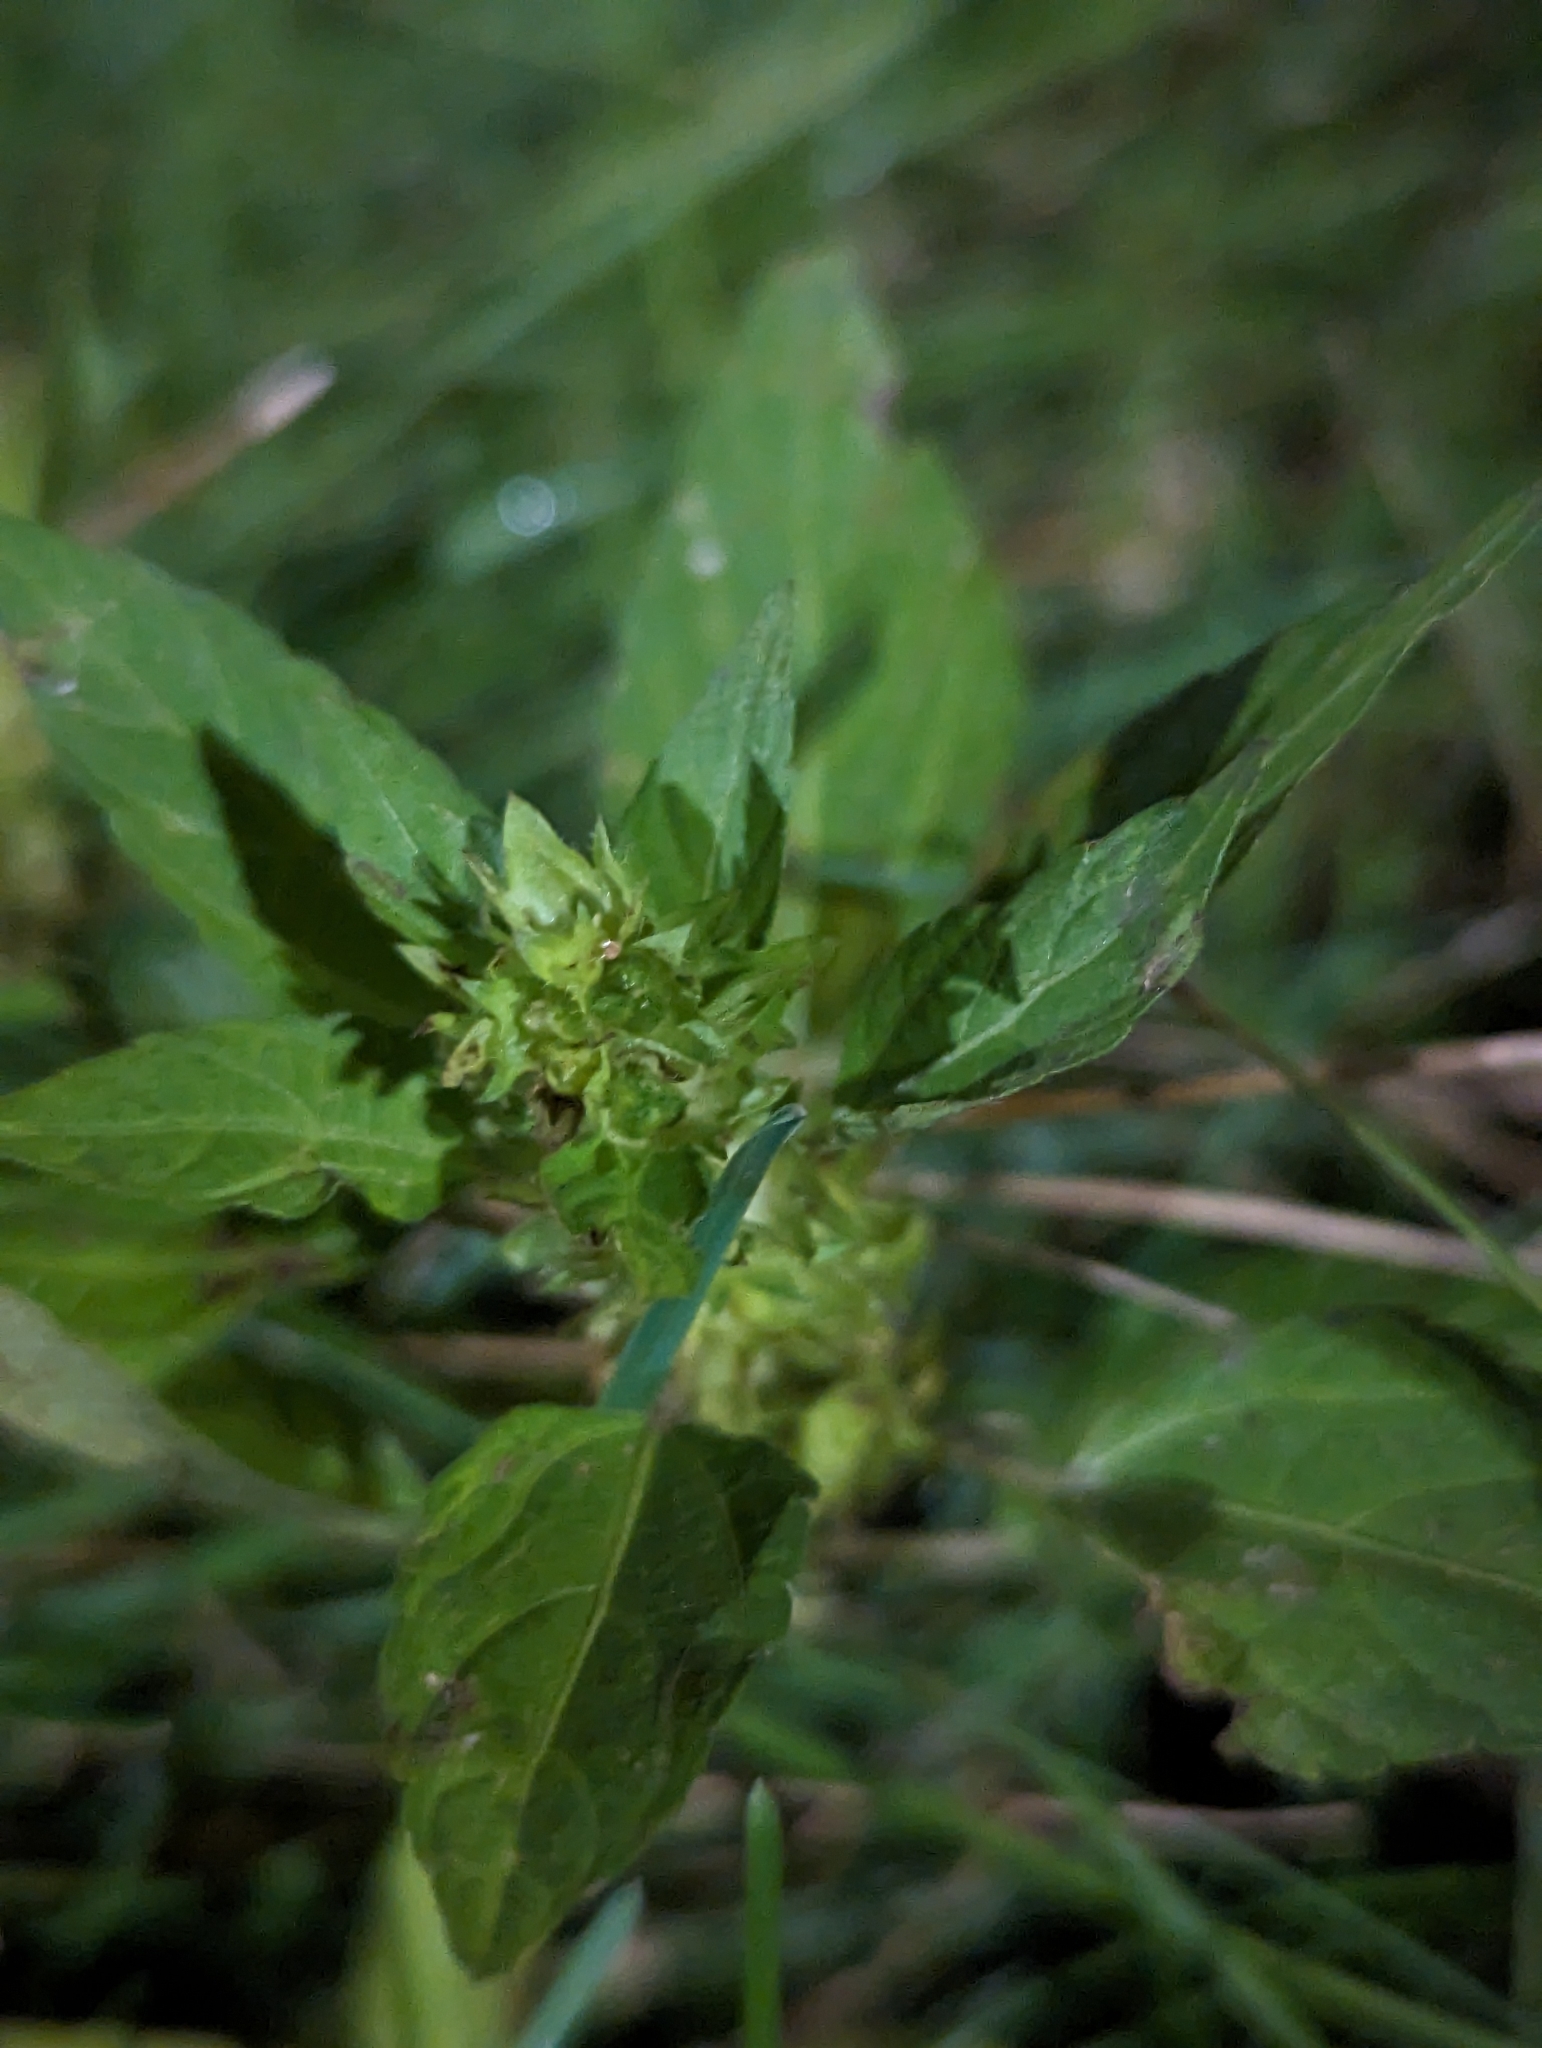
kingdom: Plantae
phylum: Tracheophyta
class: Magnoliopsida
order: Malpighiales
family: Euphorbiaceae
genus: Acalypha
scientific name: Acalypha rhomboidea
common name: Rhombic copperleaf
